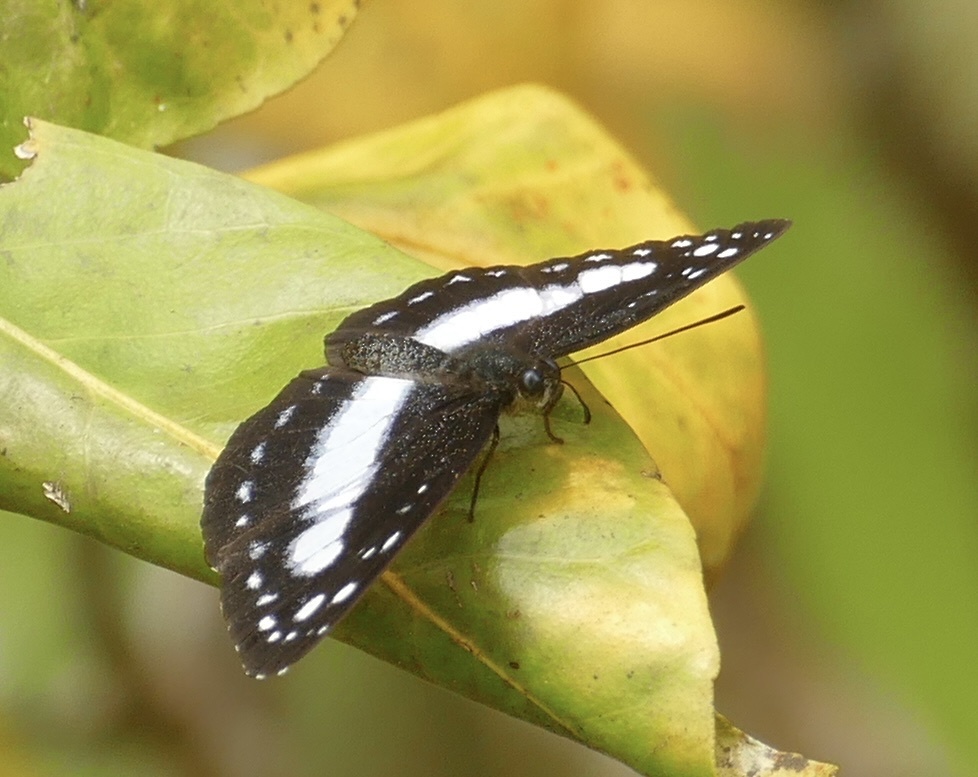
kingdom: Animalia
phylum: Arthropoda
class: Insecta
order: Lepidoptera
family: Nymphalidae
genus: Pantoporia
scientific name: Pantoporia venilia
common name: Cape york aeroplane
